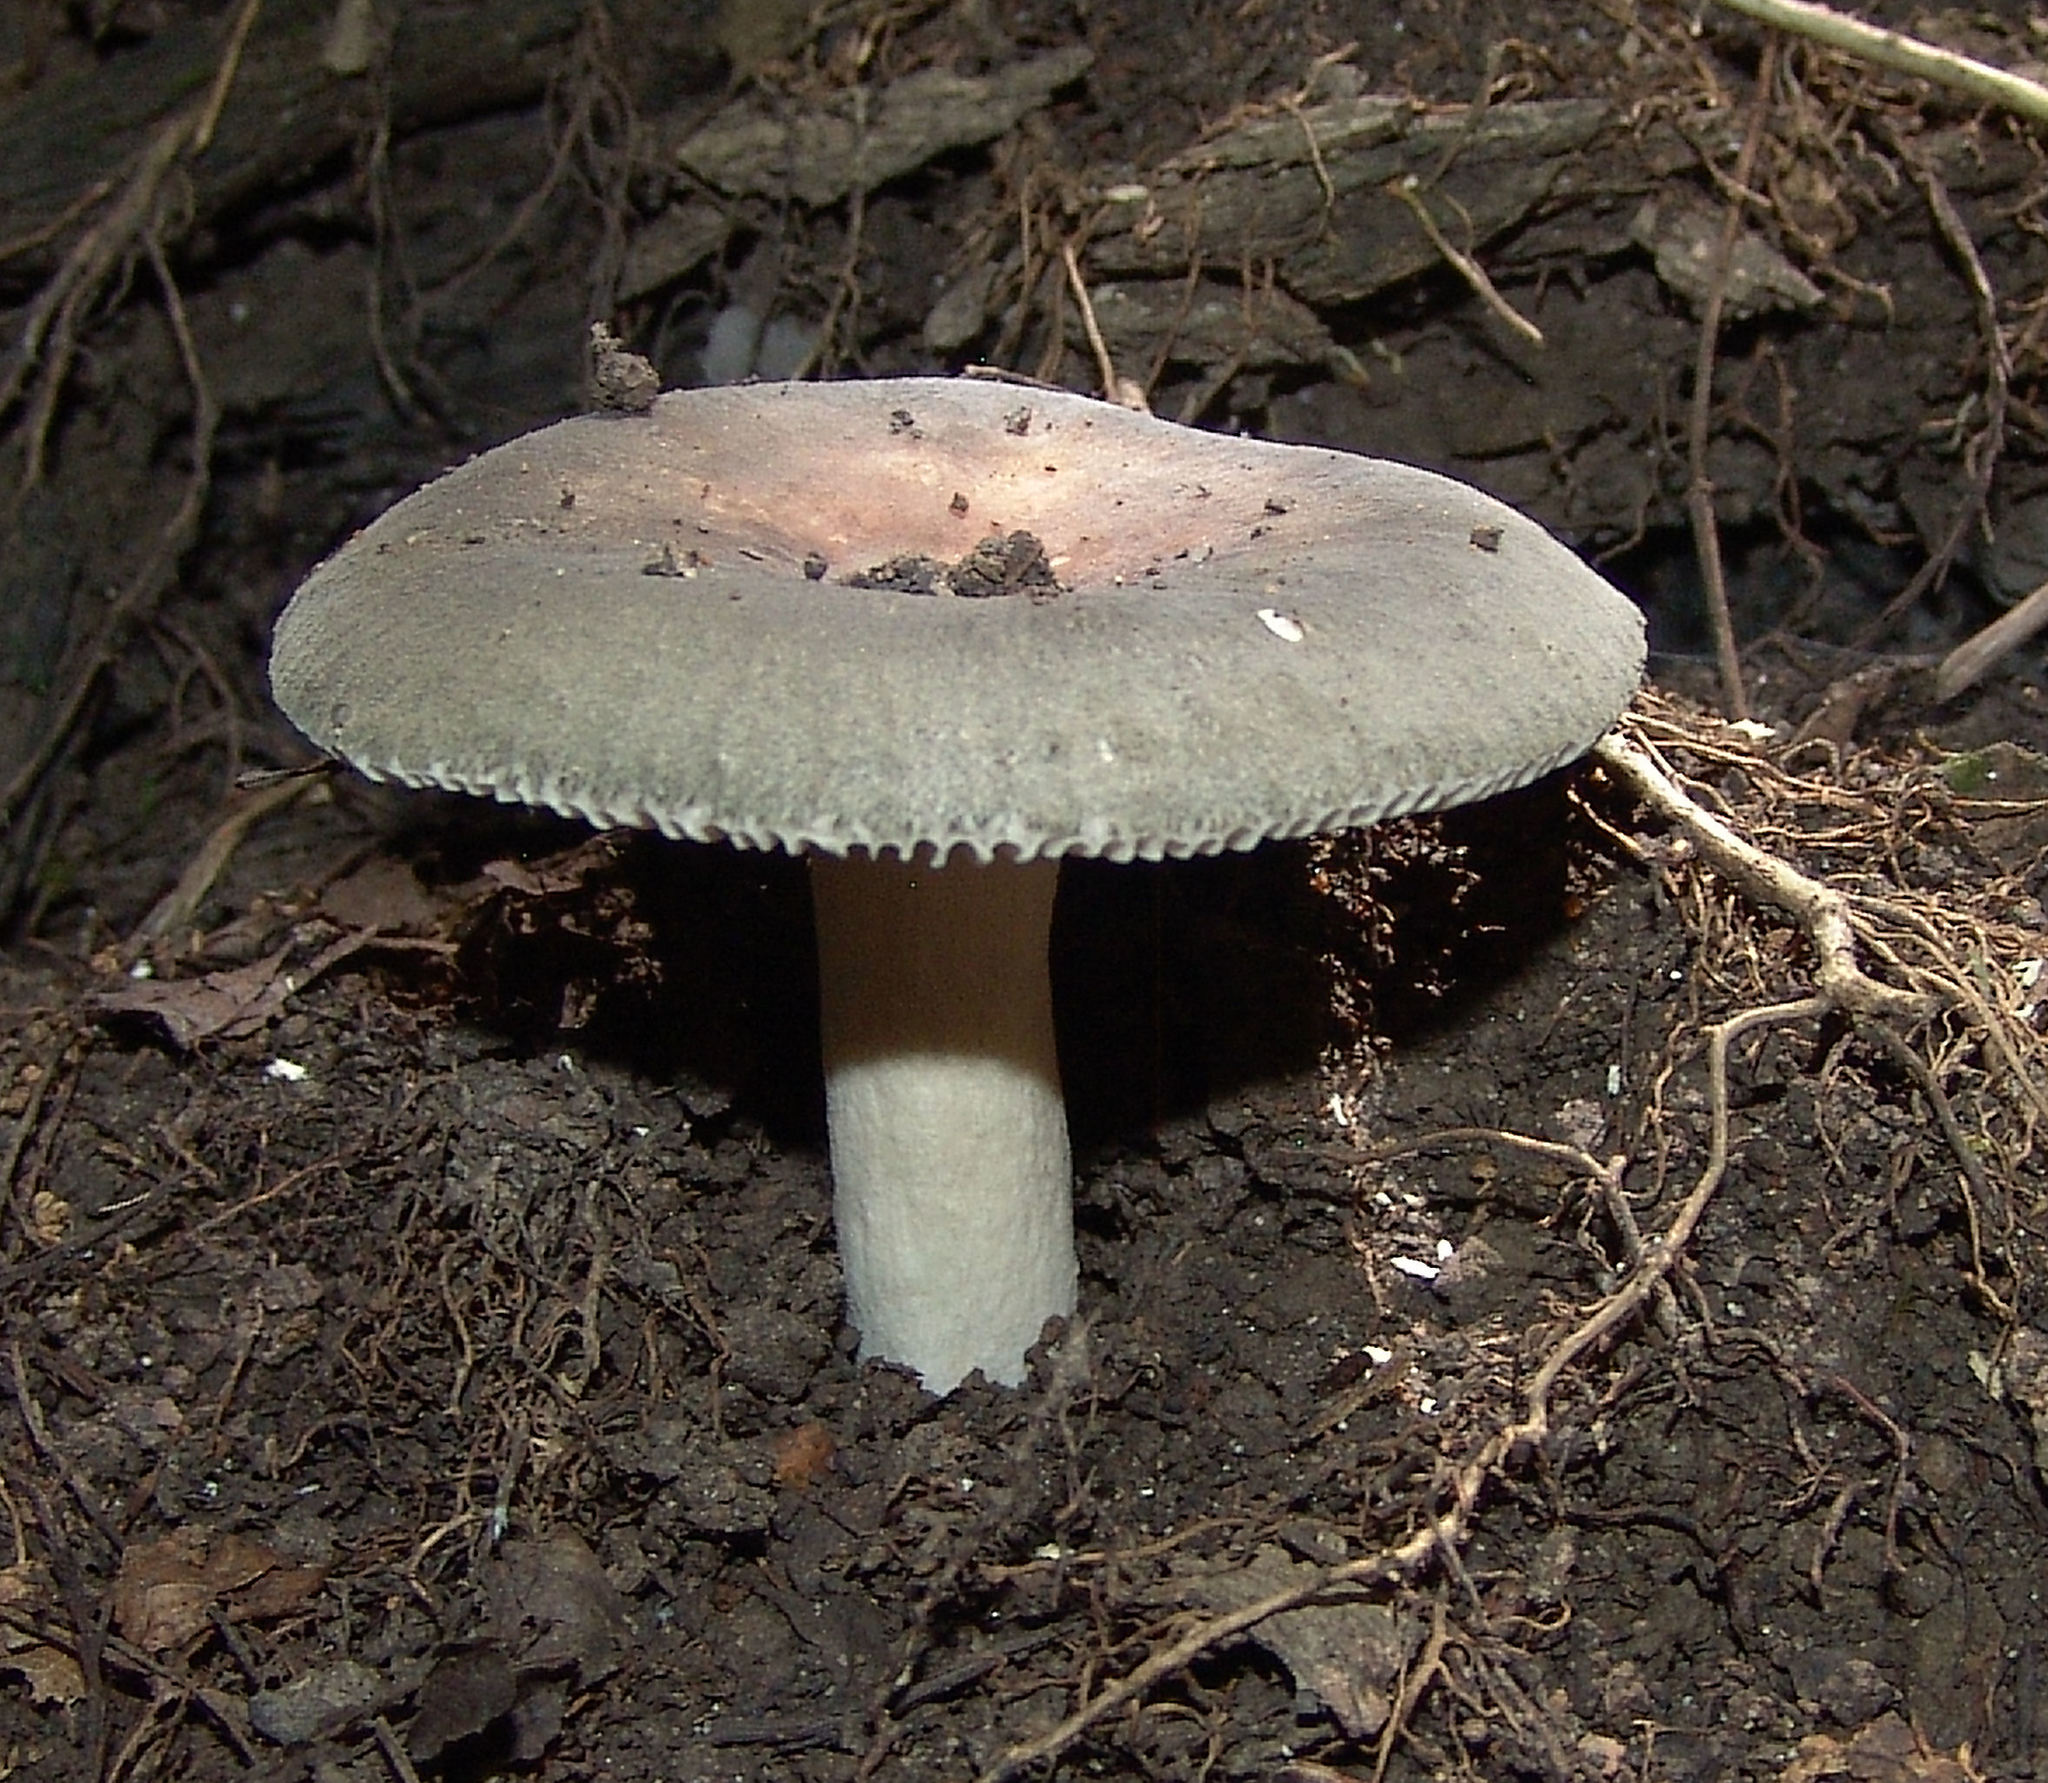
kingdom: Fungi
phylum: Basidiomycota
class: Agaricomycetes
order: Russulales
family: Russulaceae
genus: Russula
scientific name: Russula
